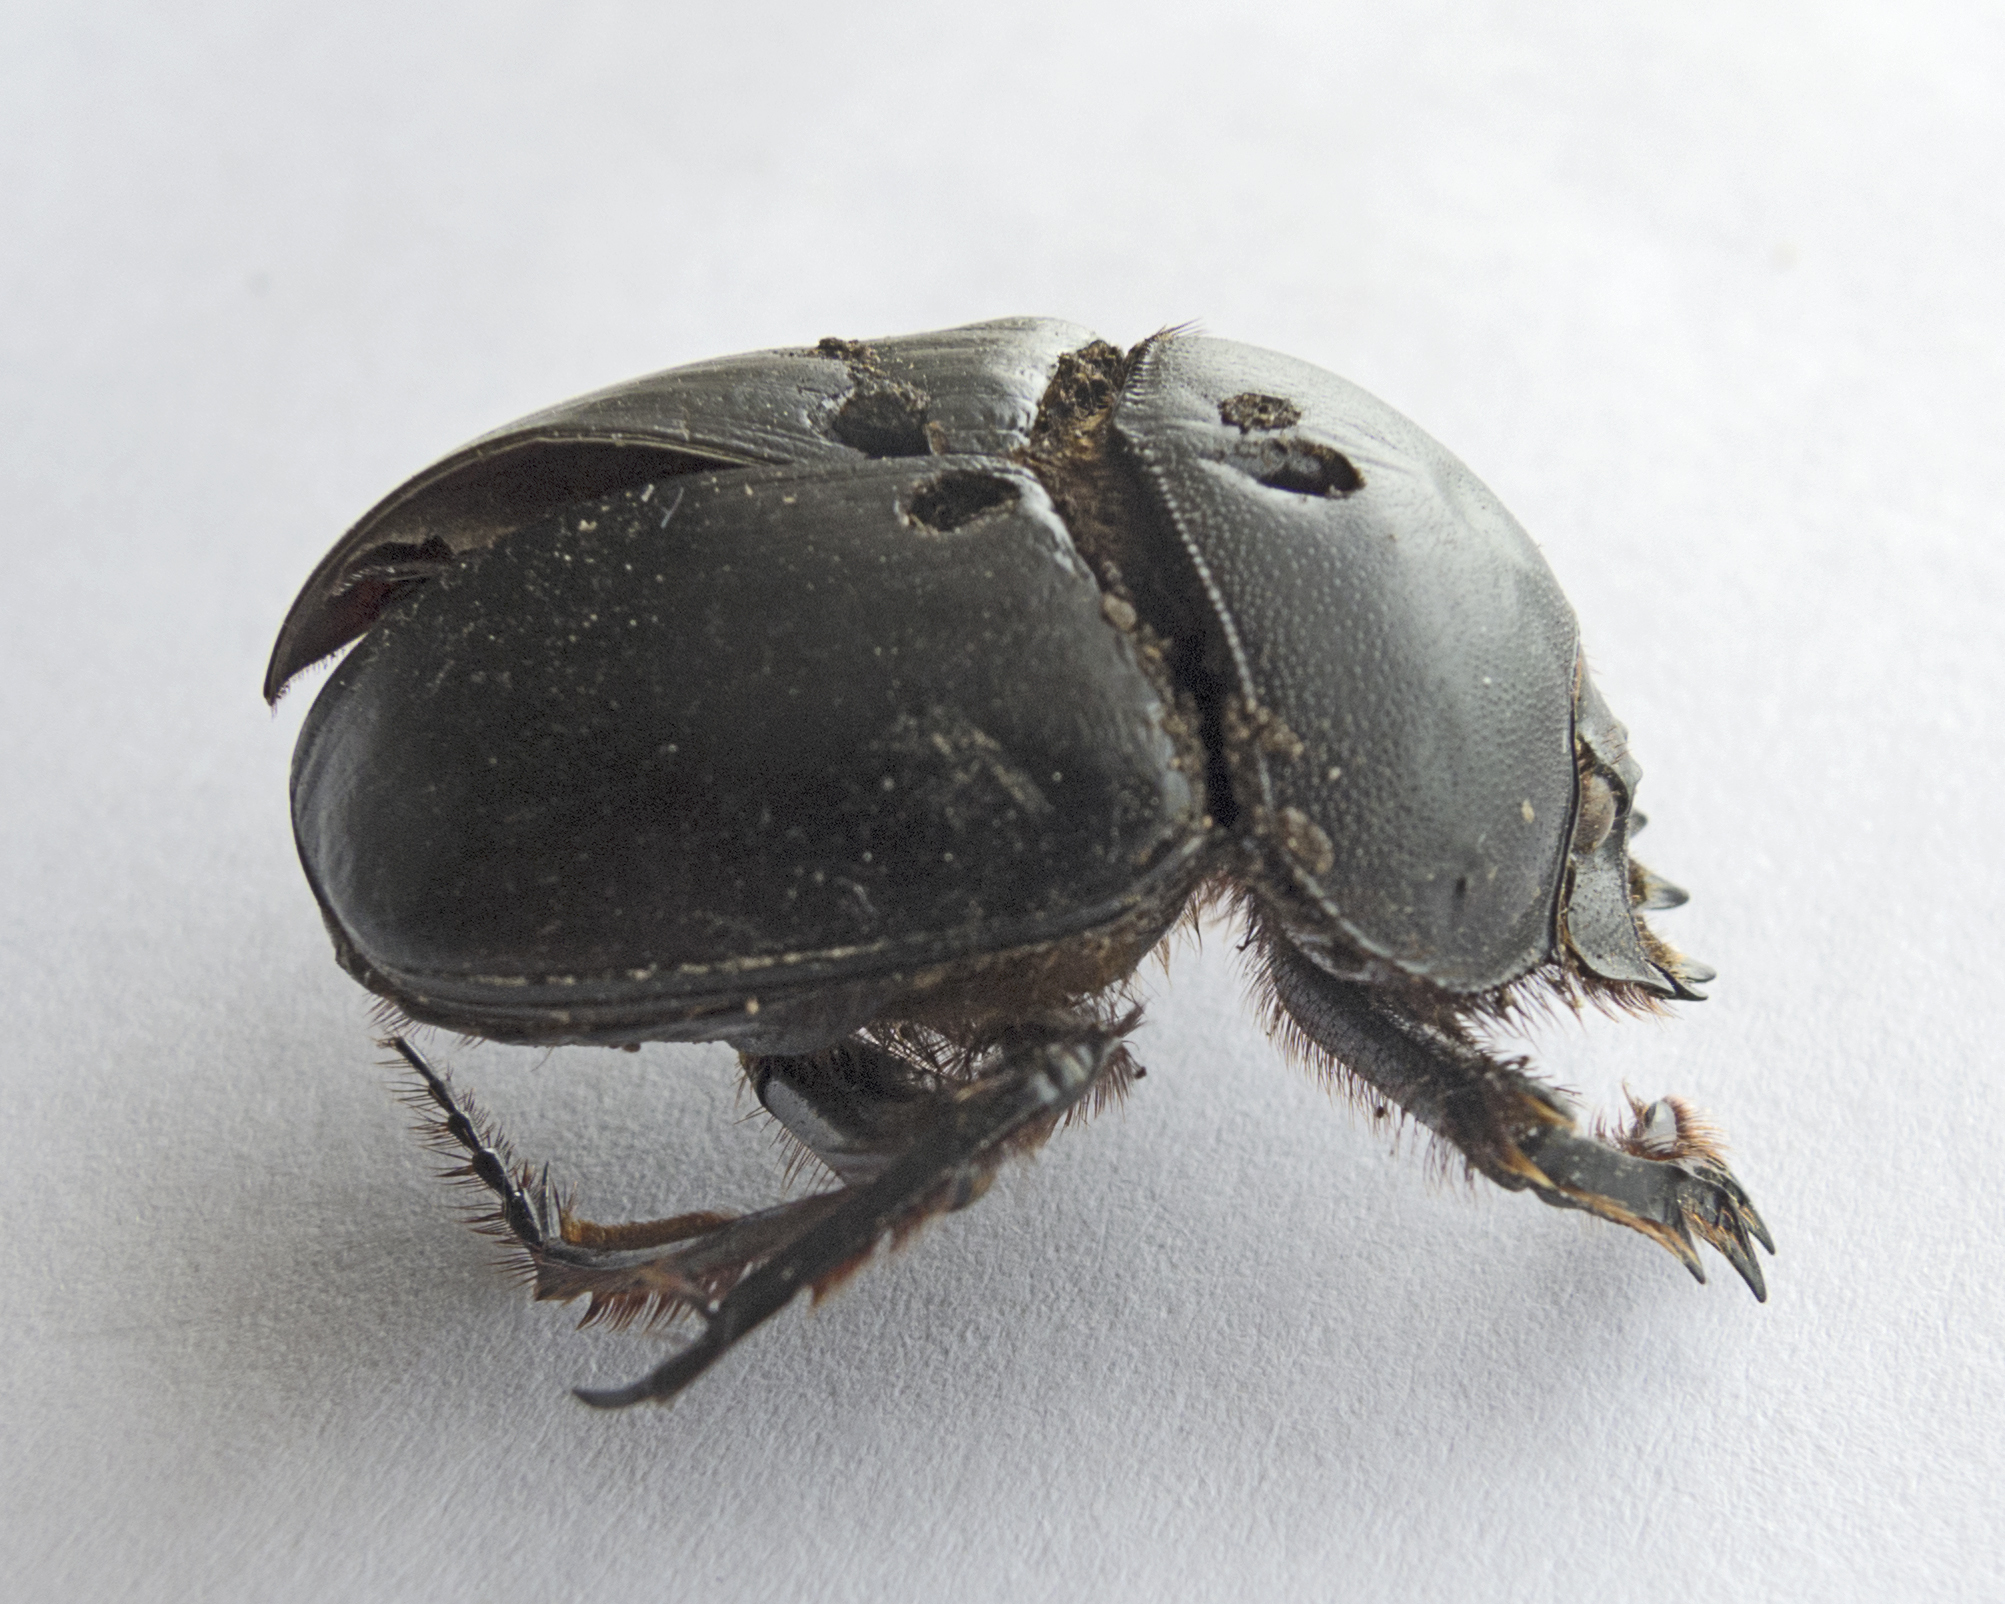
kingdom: Animalia
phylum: Arthropoda
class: Insecta
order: Coleoptera
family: Scarabaeidae
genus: Scarabaeus
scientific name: Scarabaeus typhon
